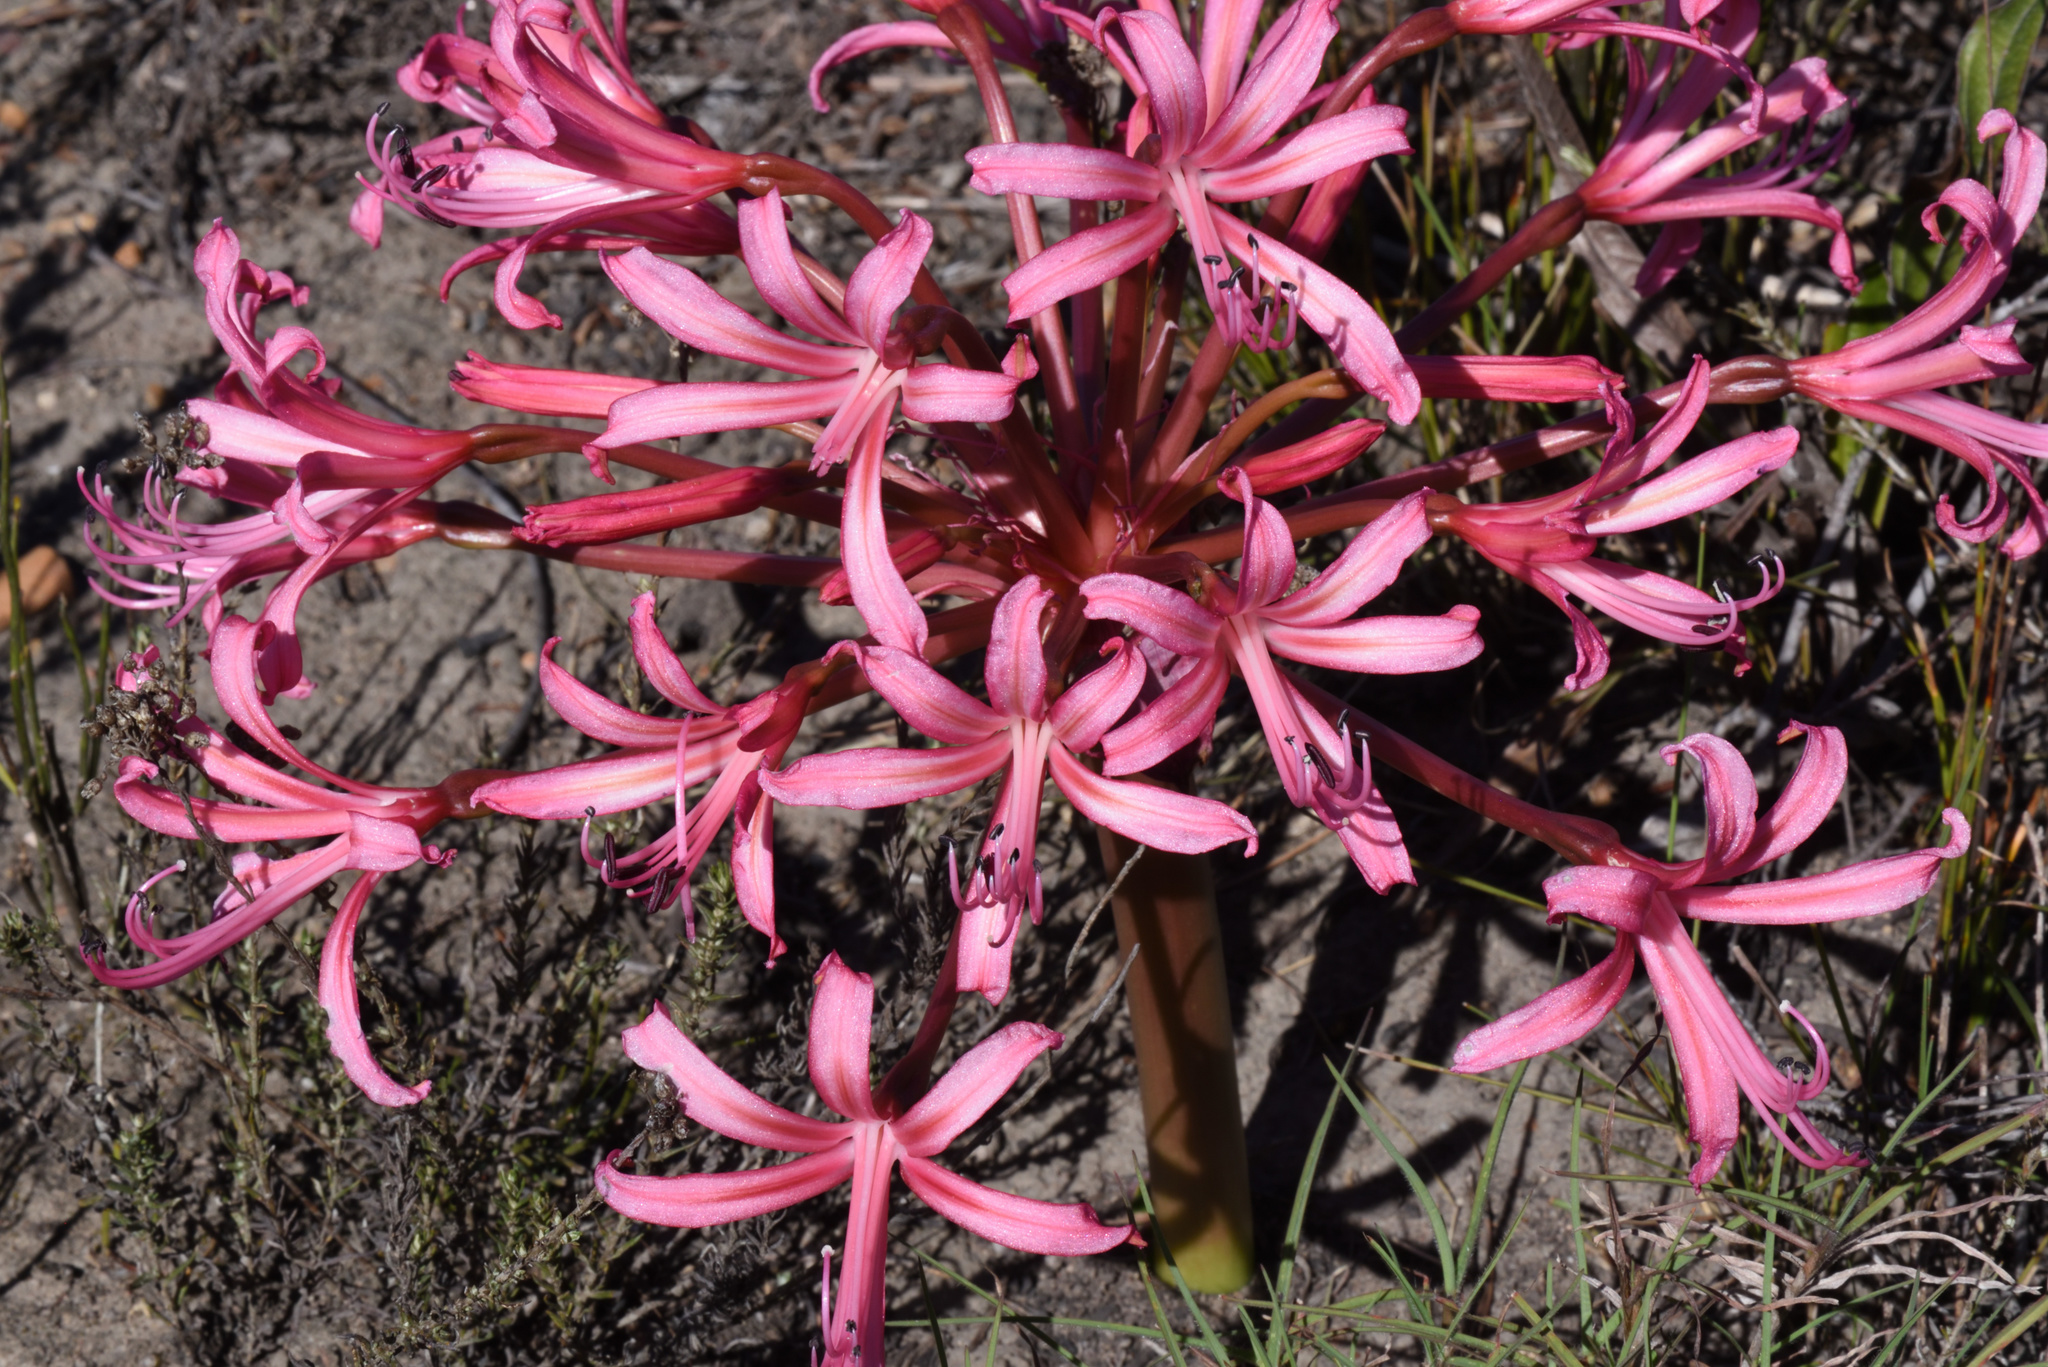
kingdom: Plantae
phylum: Tracheophyta
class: Liliopsida
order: Asparagales
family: Amaryllidaceae
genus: Brunsvigia
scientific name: Brunsvigia gregaria
